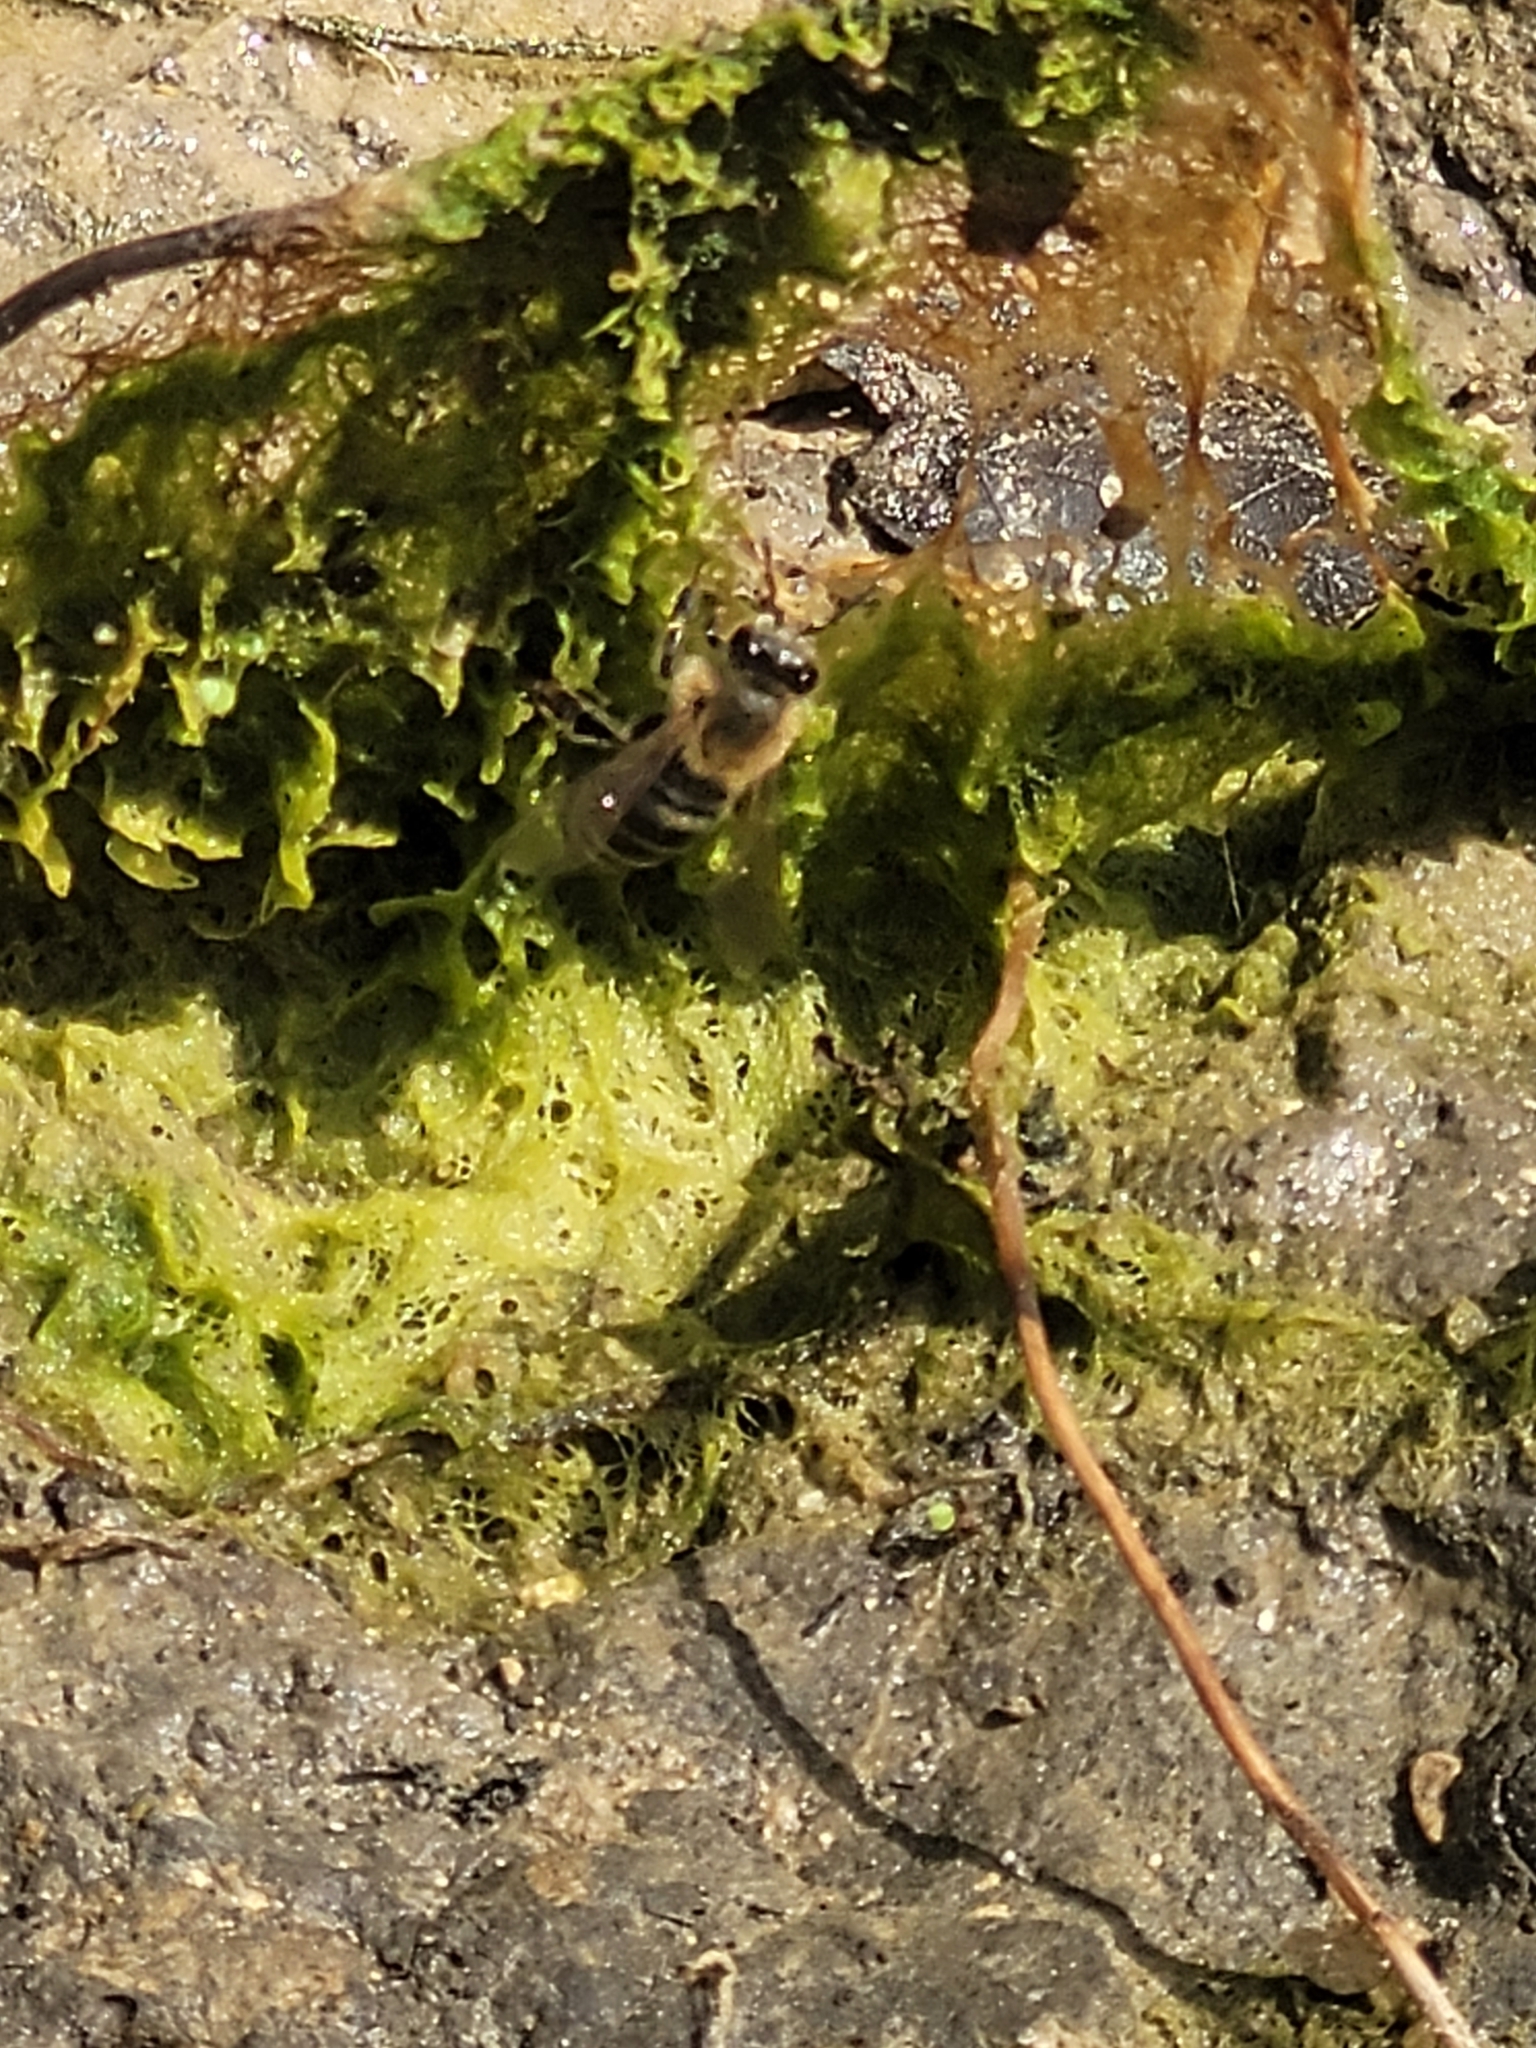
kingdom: Animalia
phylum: Arthropoda
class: Insecta
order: Hymenoptera
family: Apidae
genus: Apis
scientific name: Apis mellifera
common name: Honey bee
